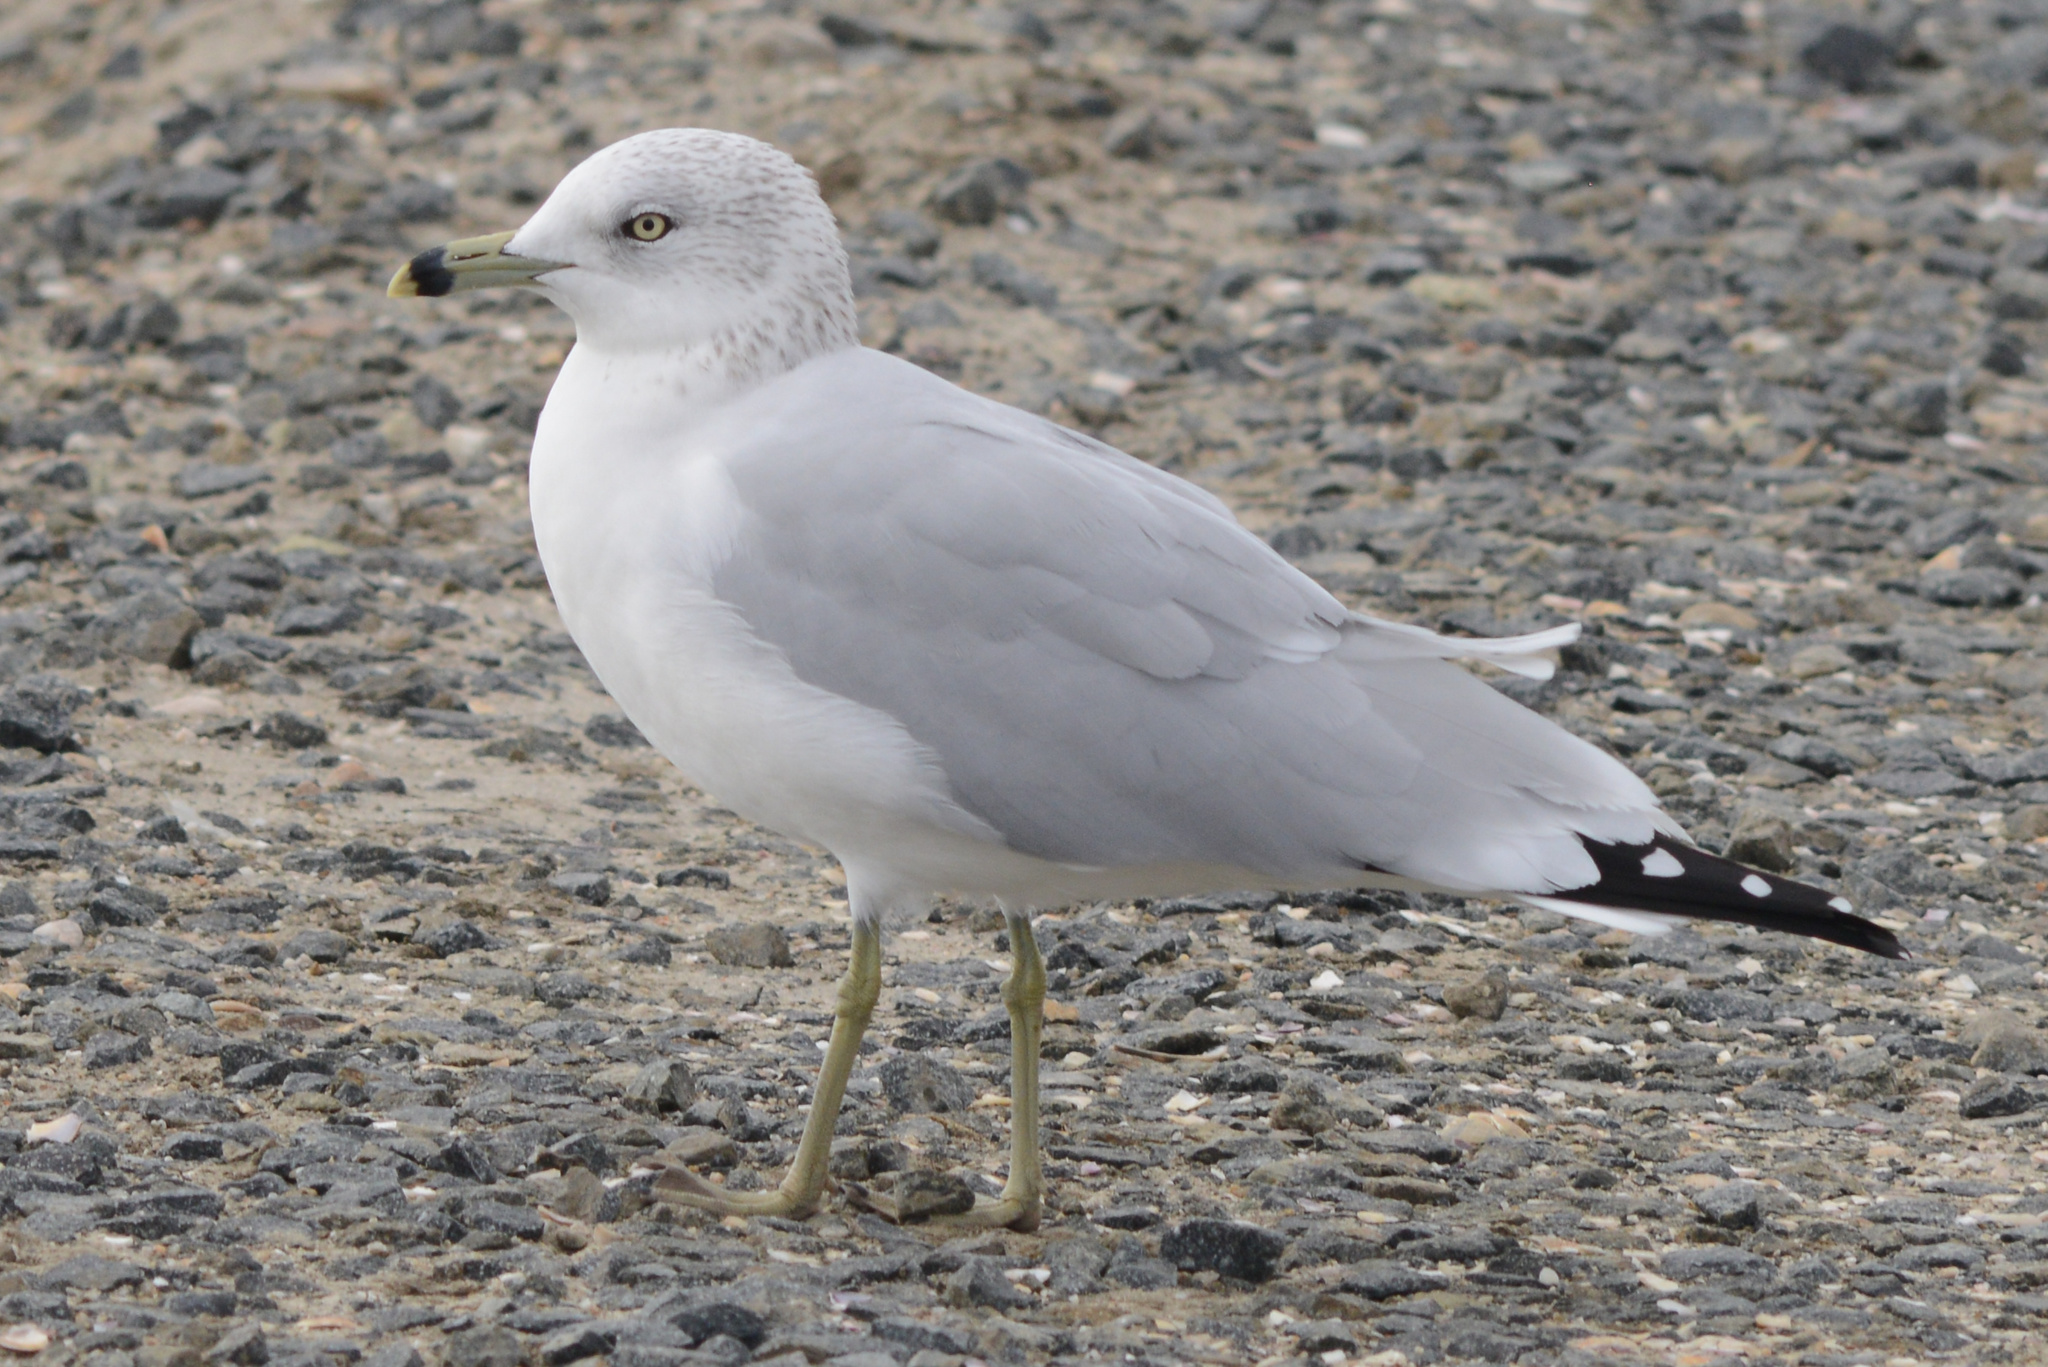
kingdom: Animalia
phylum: Chordata
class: Aves
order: Charadriiformes
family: Laridae
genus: Larus
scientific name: Larus delawarensis
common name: Ring-billed gull
